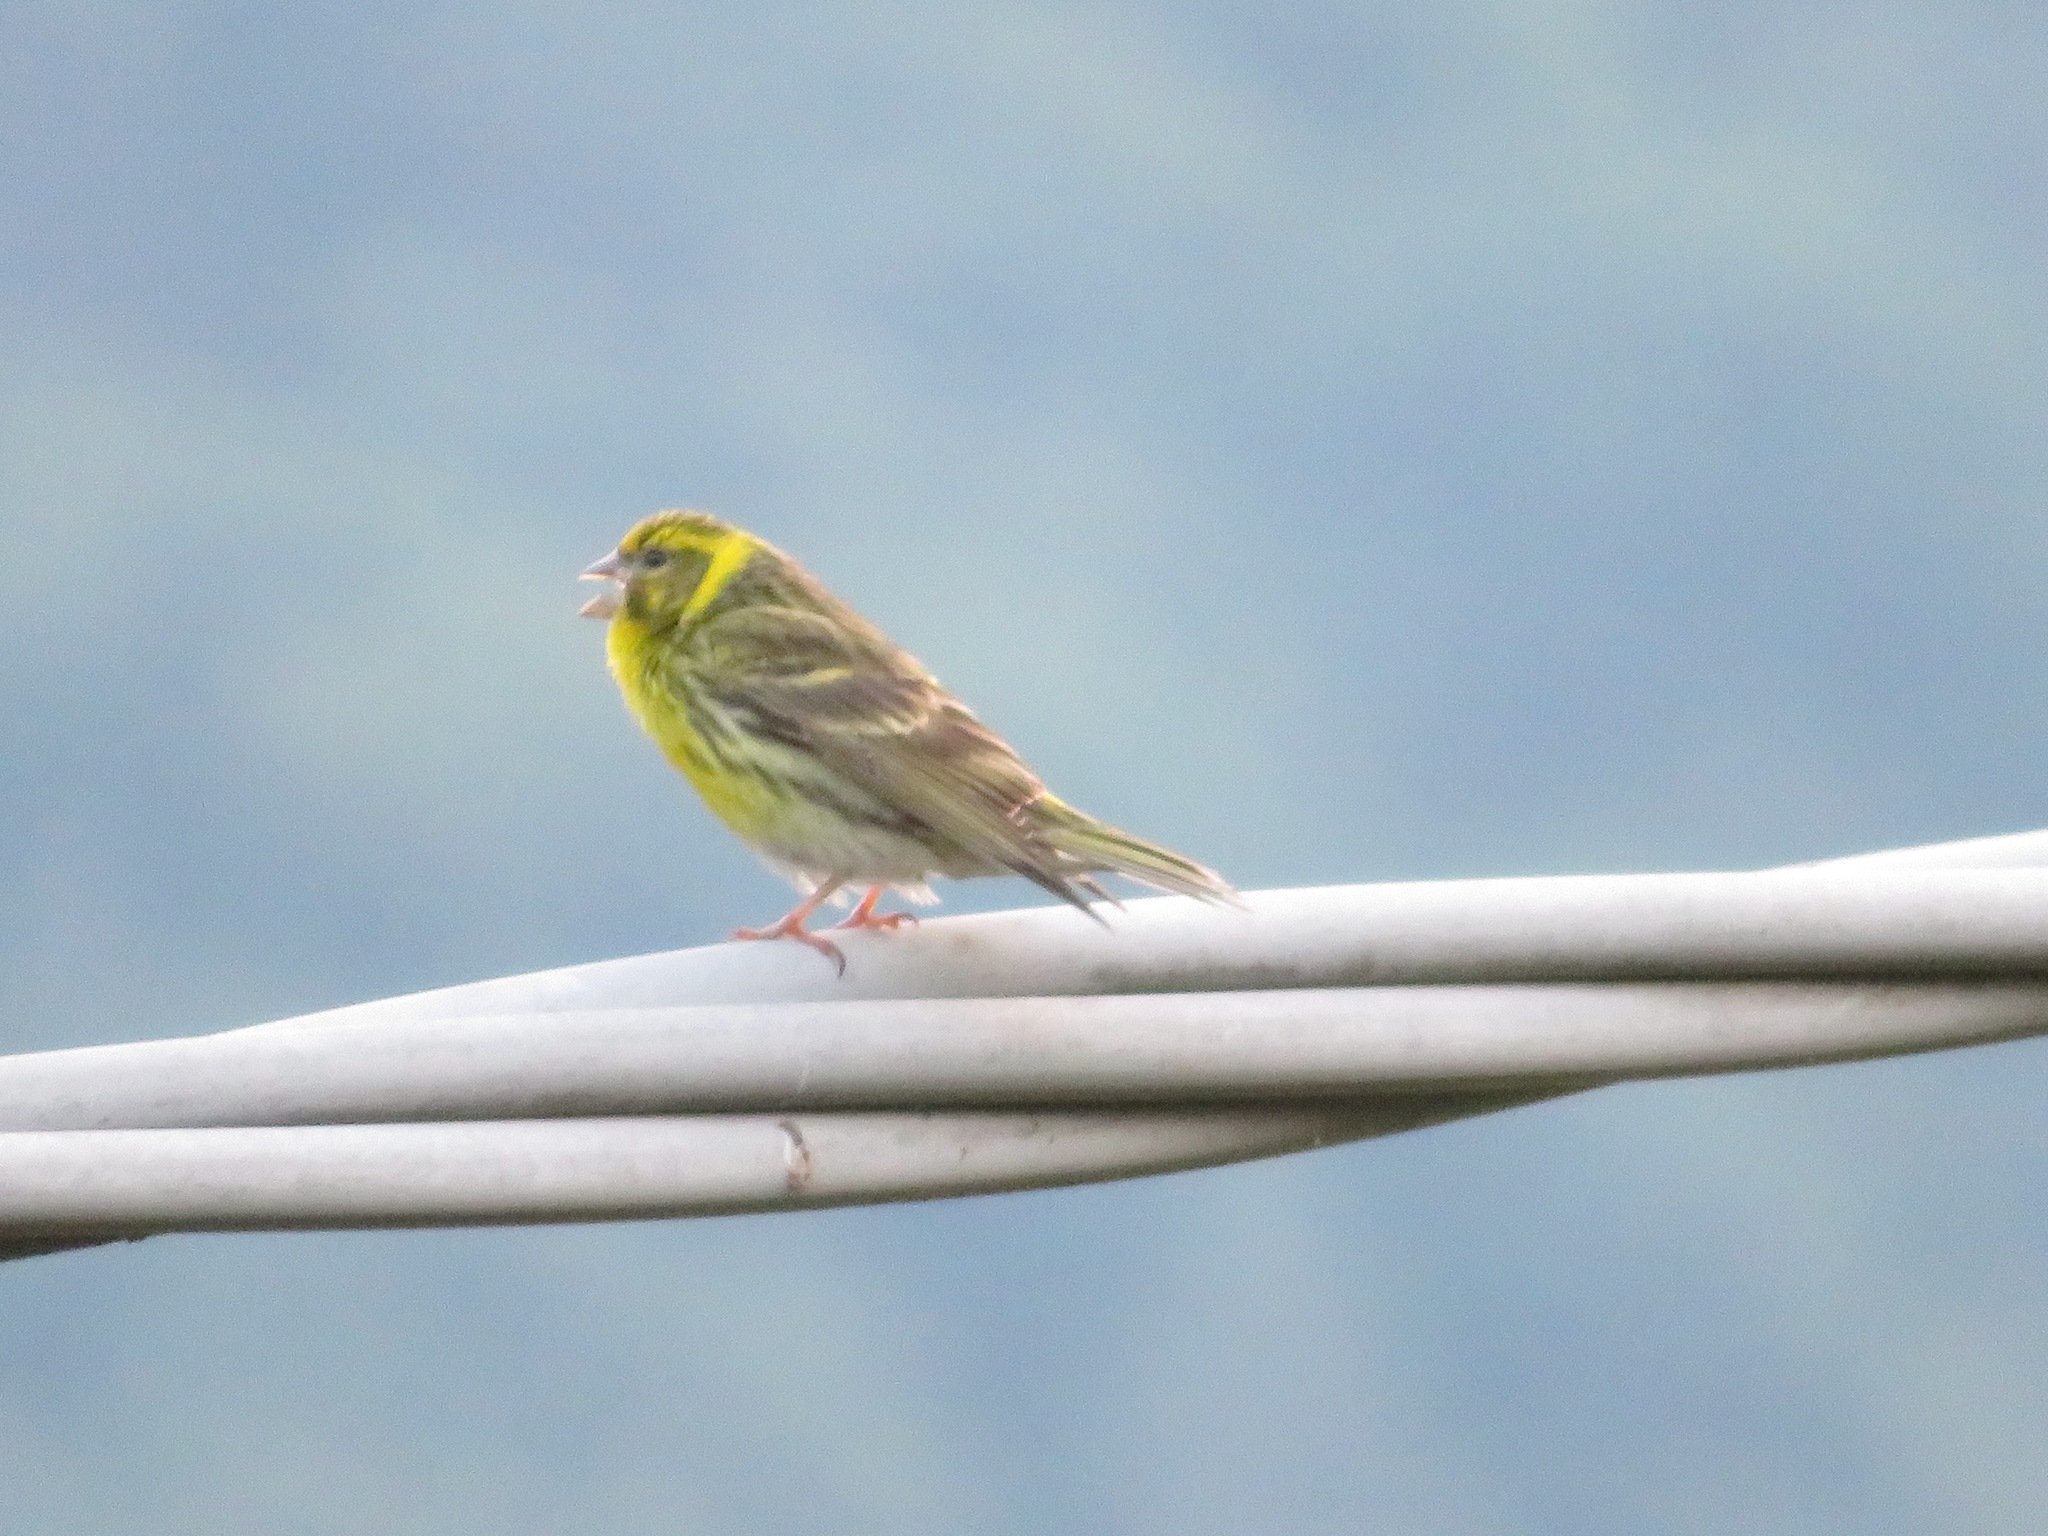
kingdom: Animalia
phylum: Chordata
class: Aves
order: Passeriformes
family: Fringillidae
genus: Serinus
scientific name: Serinus serinus
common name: European serin
